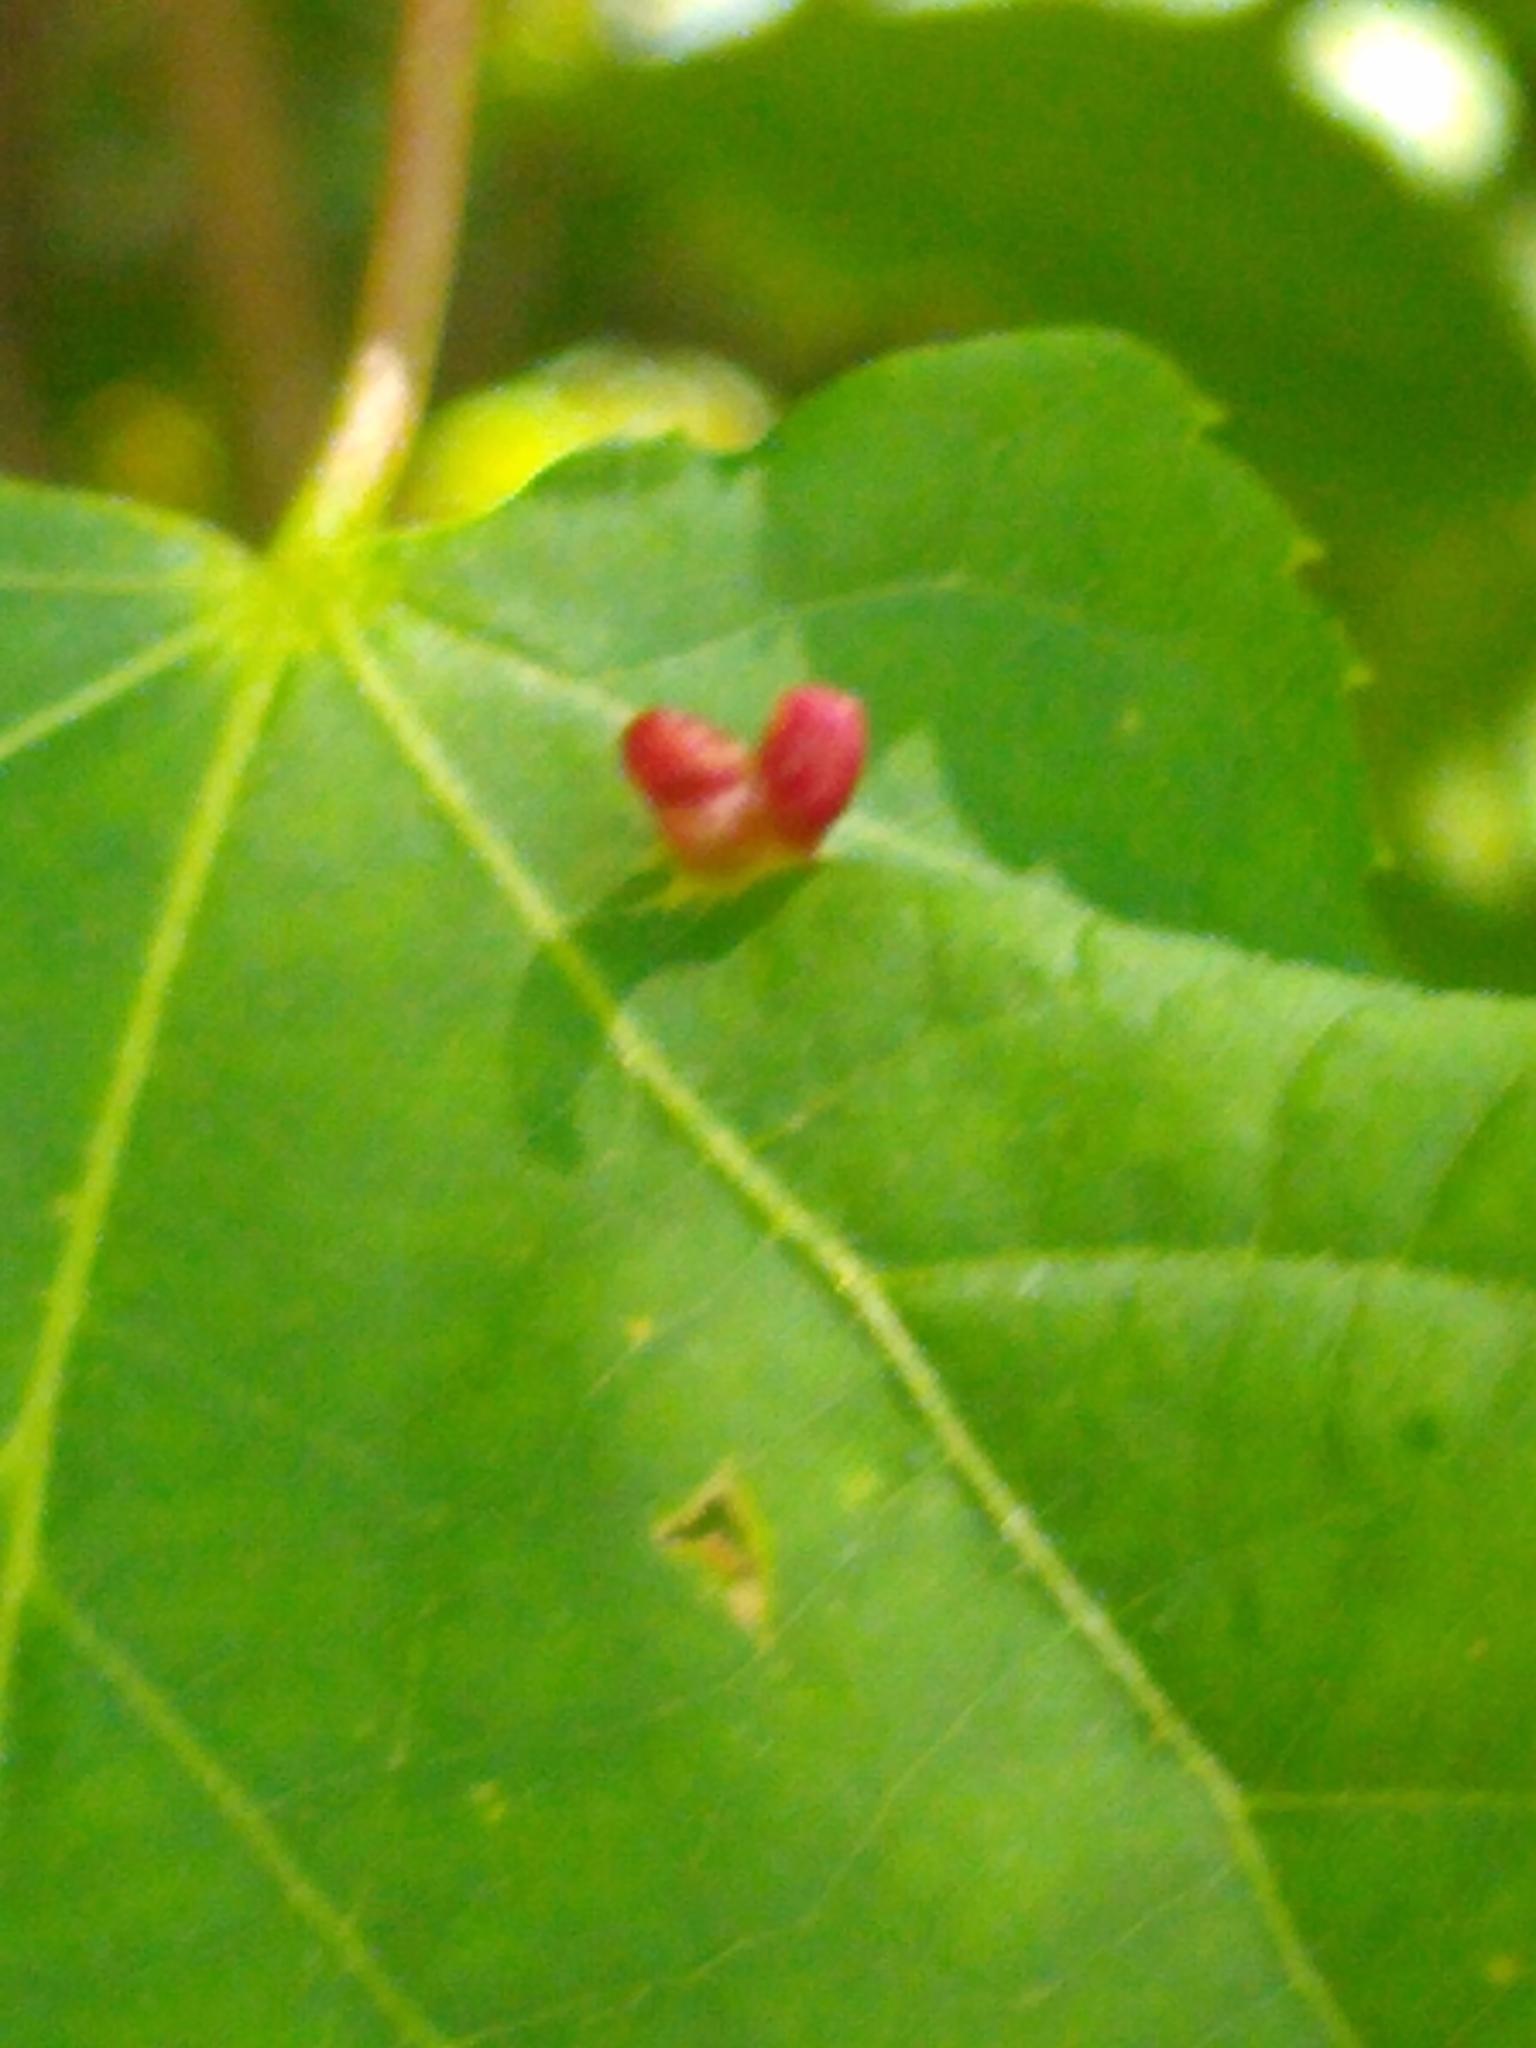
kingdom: Animalia
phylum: Arthropoda
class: Arachnida
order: Trombidiformes
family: Eriophyidae
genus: Eriophyes
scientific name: Eriophyes tiliae
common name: Red nail gall mite
